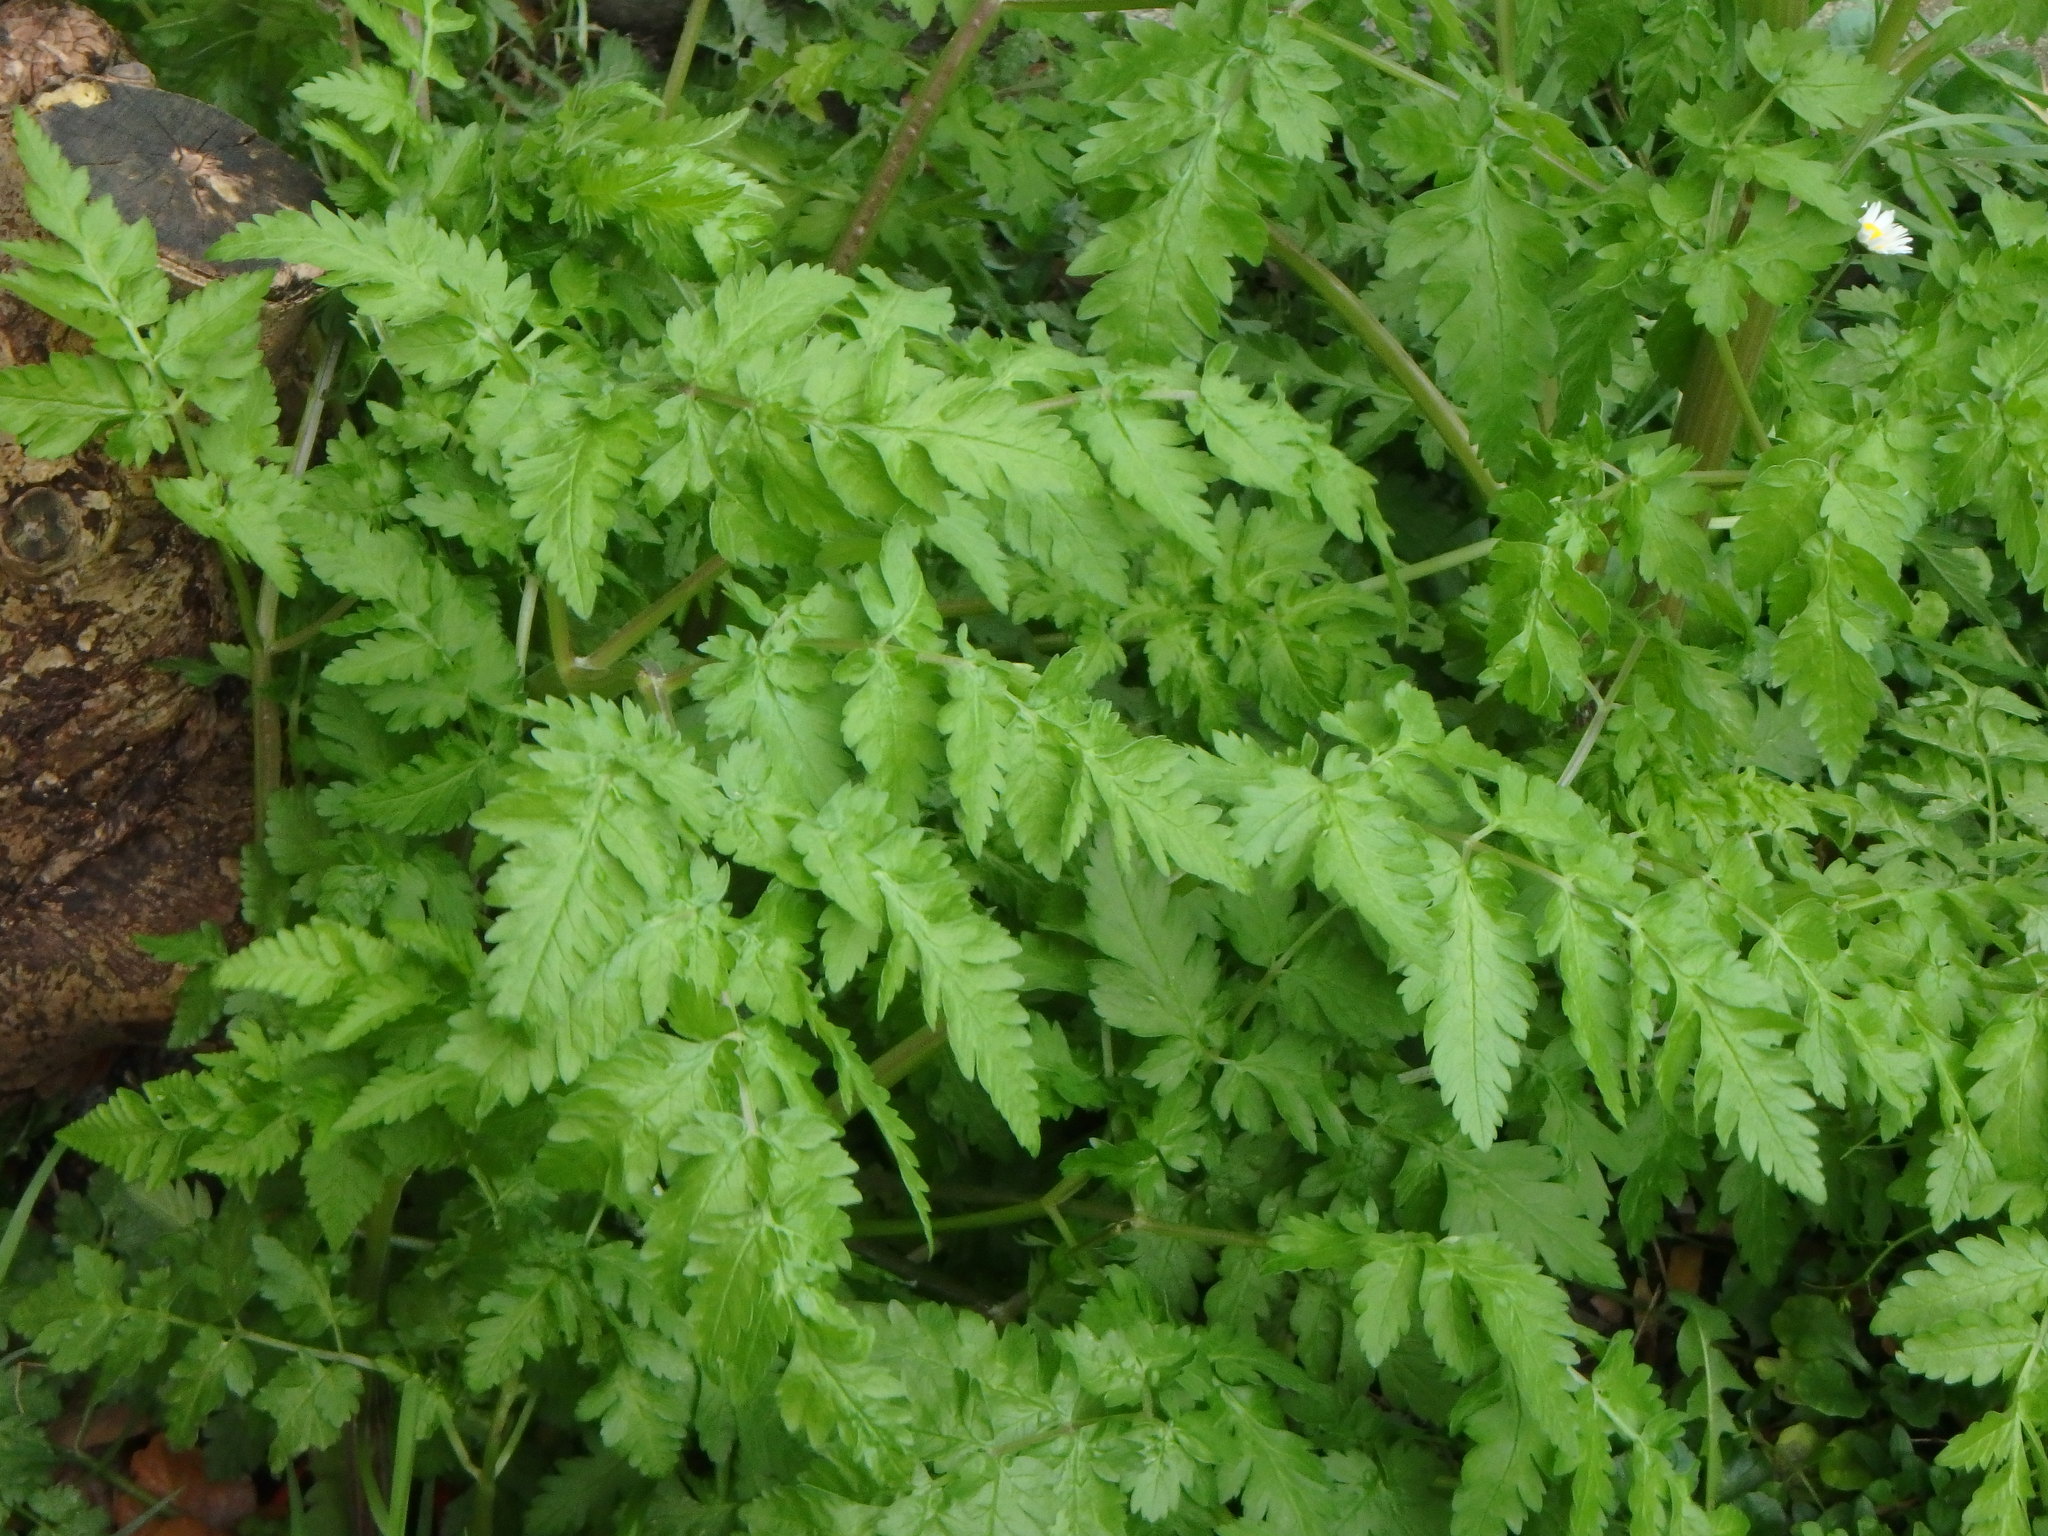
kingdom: Plantae
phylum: Tracheophyta
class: Magnoliopsida
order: Apiales
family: Apiaceae
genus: Anthriscus
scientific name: Anthriscus sylvestris
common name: Cow parsley
